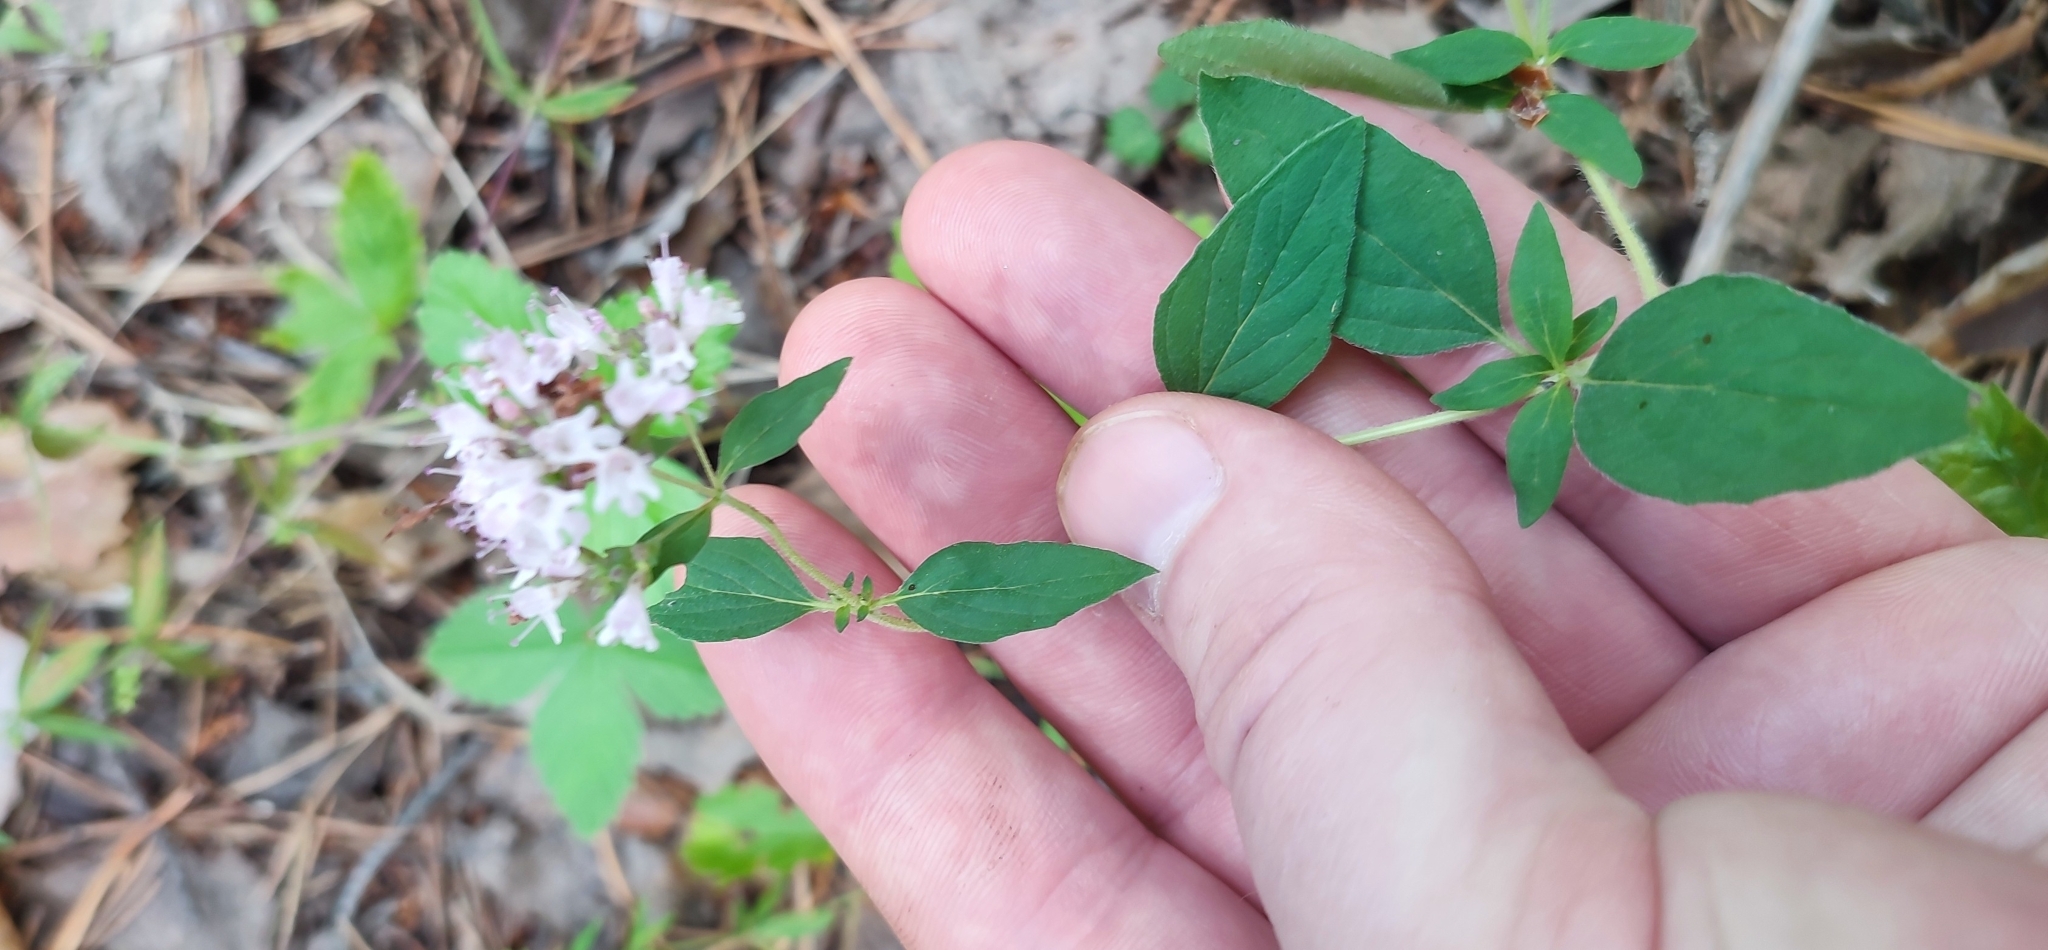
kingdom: Plantae
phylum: Tracheophyta
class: Magnoliopsida
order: Lamiales
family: Lamiaceae
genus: Origanum
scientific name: Origanum vulgare
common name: Wild marjoram
